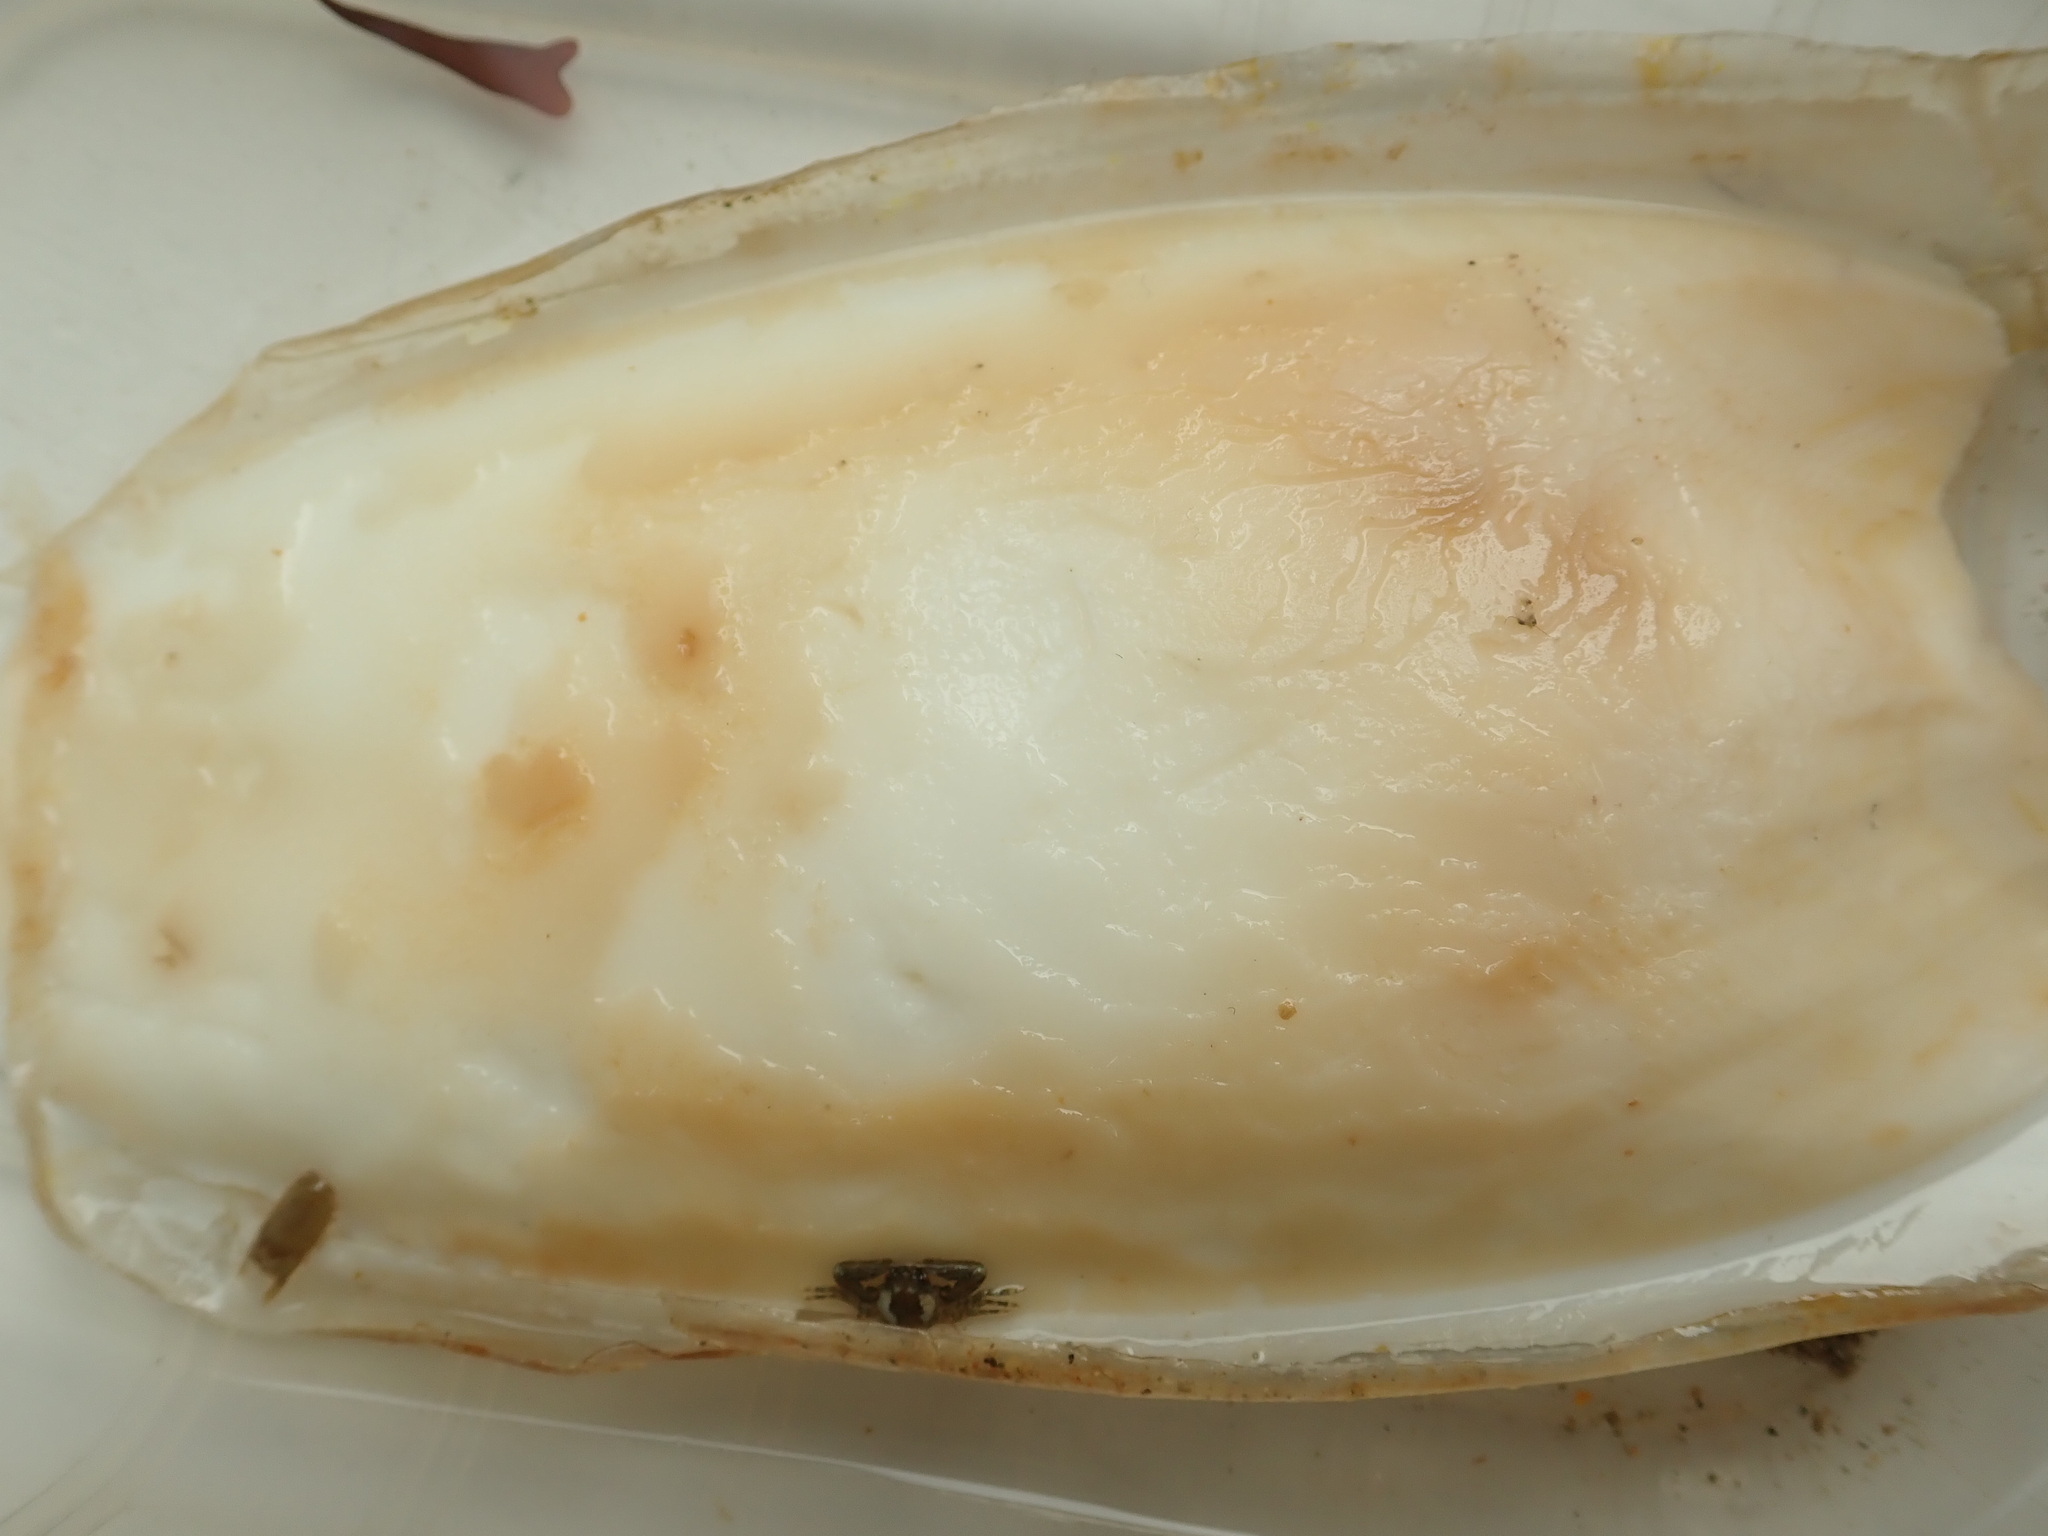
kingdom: Animalia
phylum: Mollusca
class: Cephalopoda
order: Sepiida
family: Sepiidae
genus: Sepia
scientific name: Sepia officinalis
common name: Common cuttlefish
